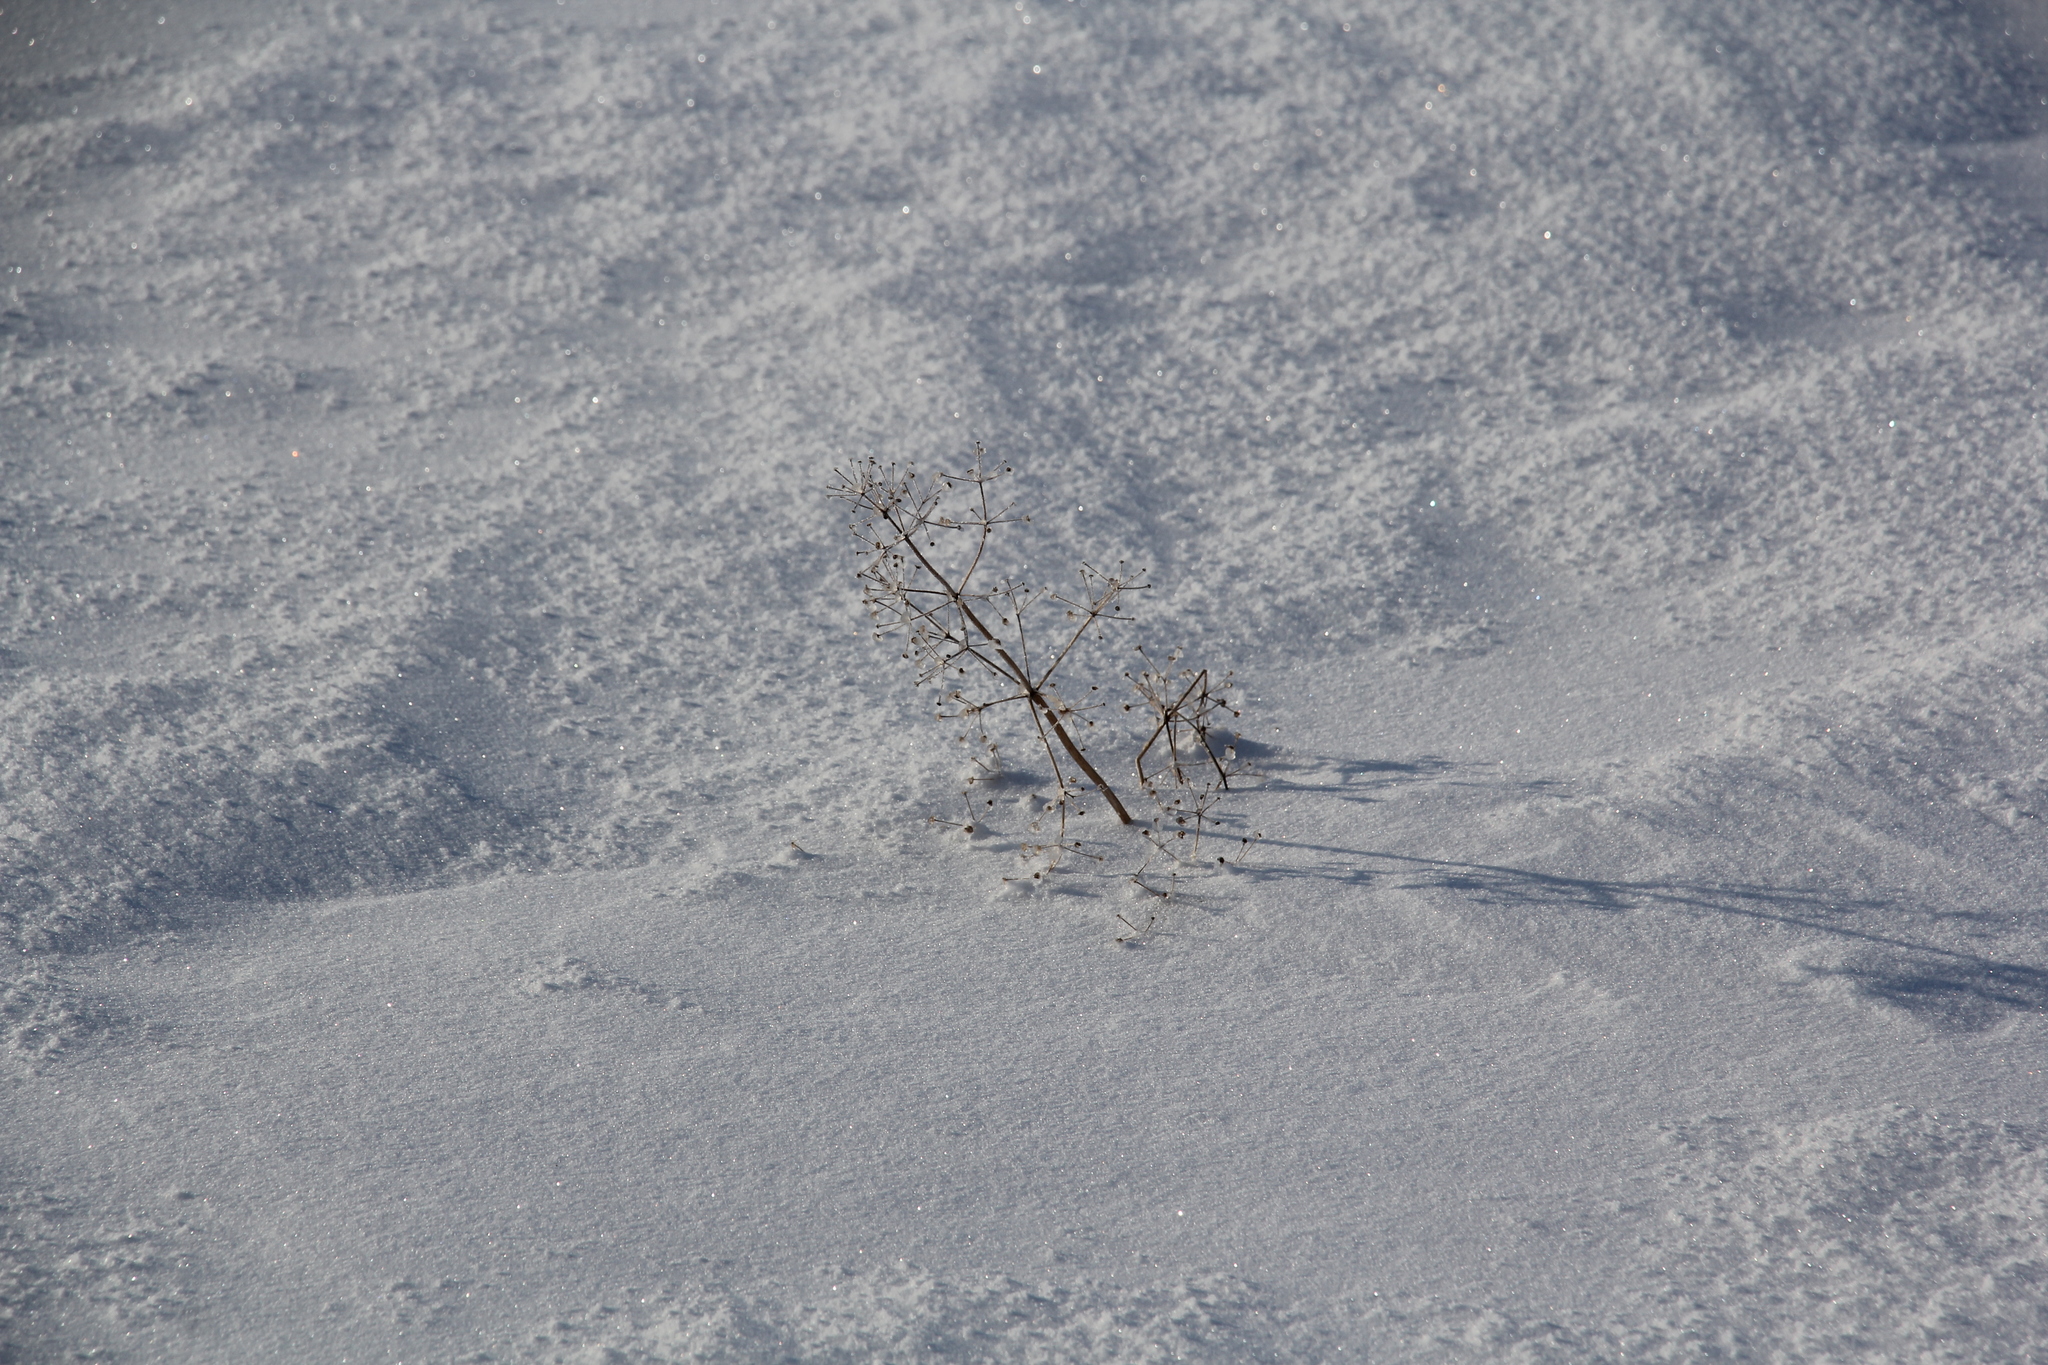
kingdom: Plantae
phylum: Tracheophyta
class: Liliopsida
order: Alismatales
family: Alismataceae
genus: Alisma
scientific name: Alisma plantago-aquatica
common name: Water-plantain
